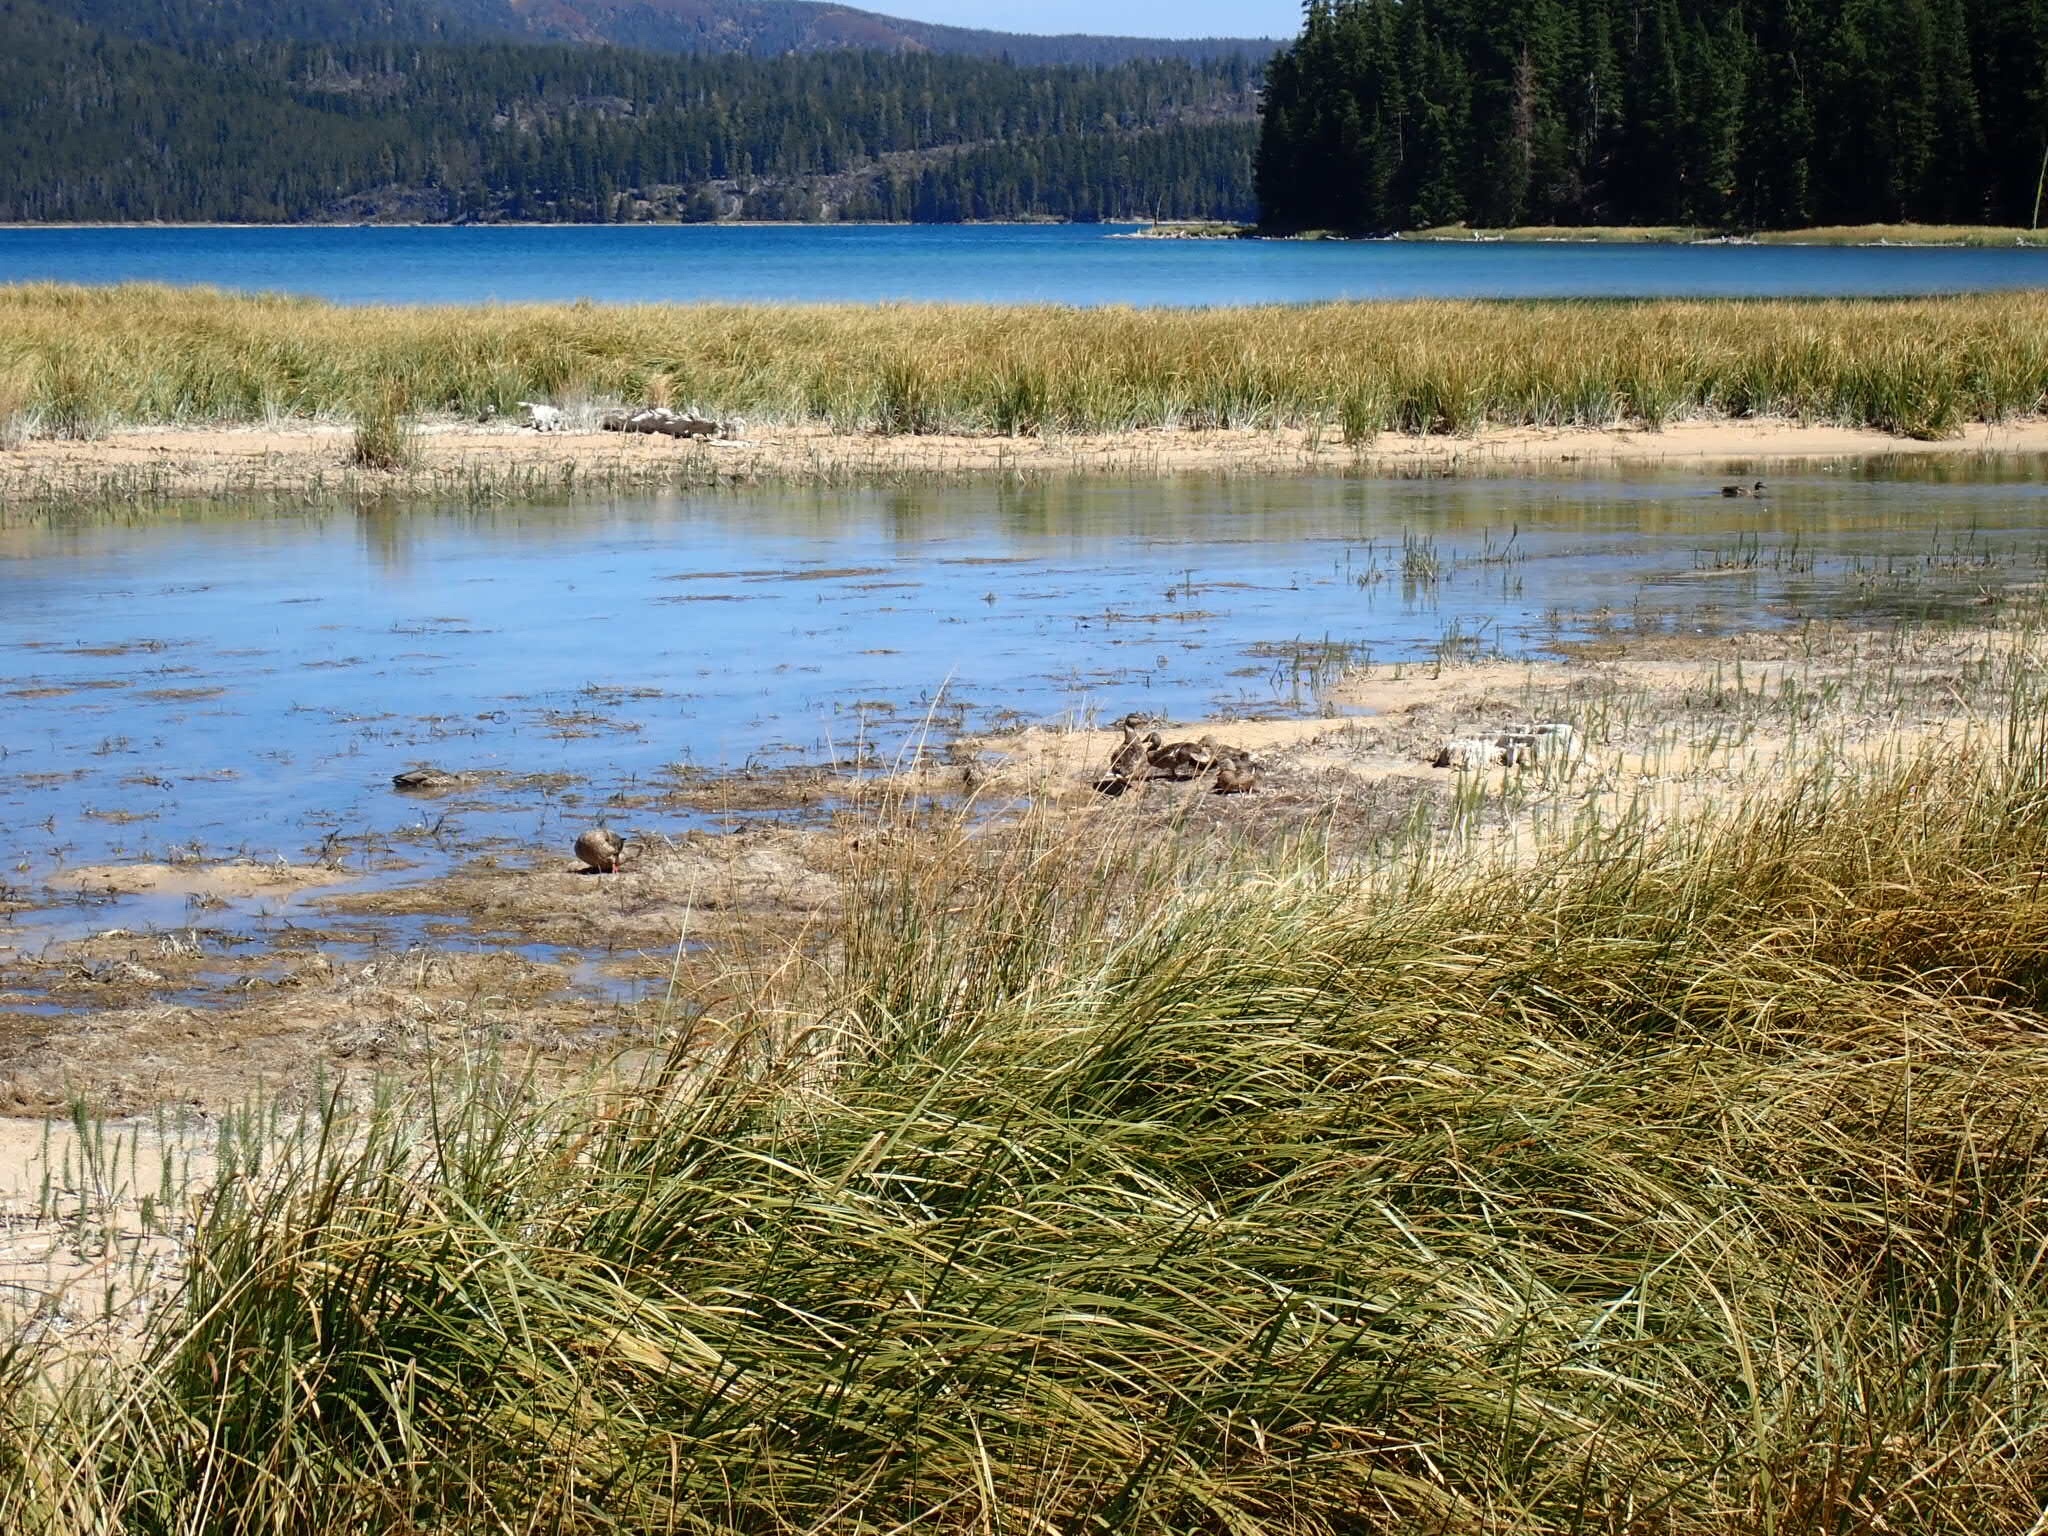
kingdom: Animalia
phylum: Chordata
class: Aves
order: Anseriformes
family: Anatidae
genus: Anas
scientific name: Anas platyrhynchos
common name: Mallard
